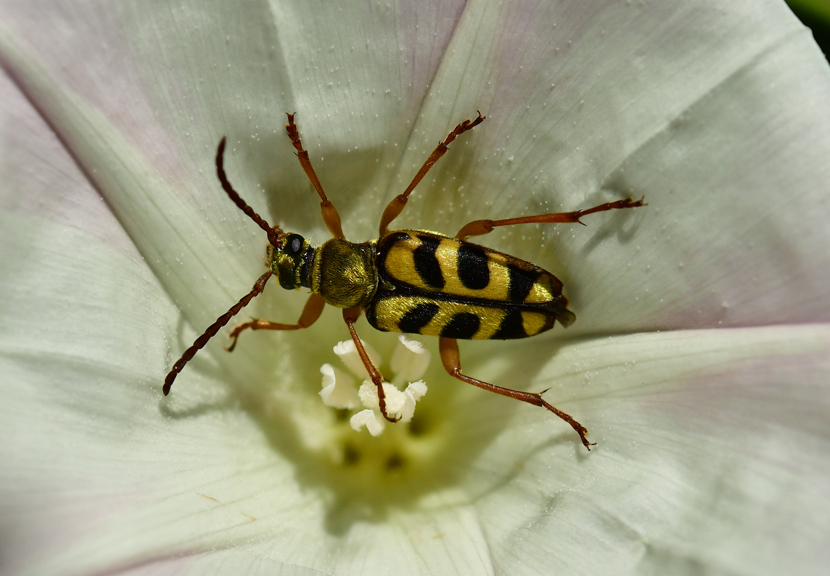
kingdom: Animalia
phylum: Arthropoda
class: Insecta
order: Coleoptera
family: Cerambycidae
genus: Strophiona
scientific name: Strophiona tigrina
